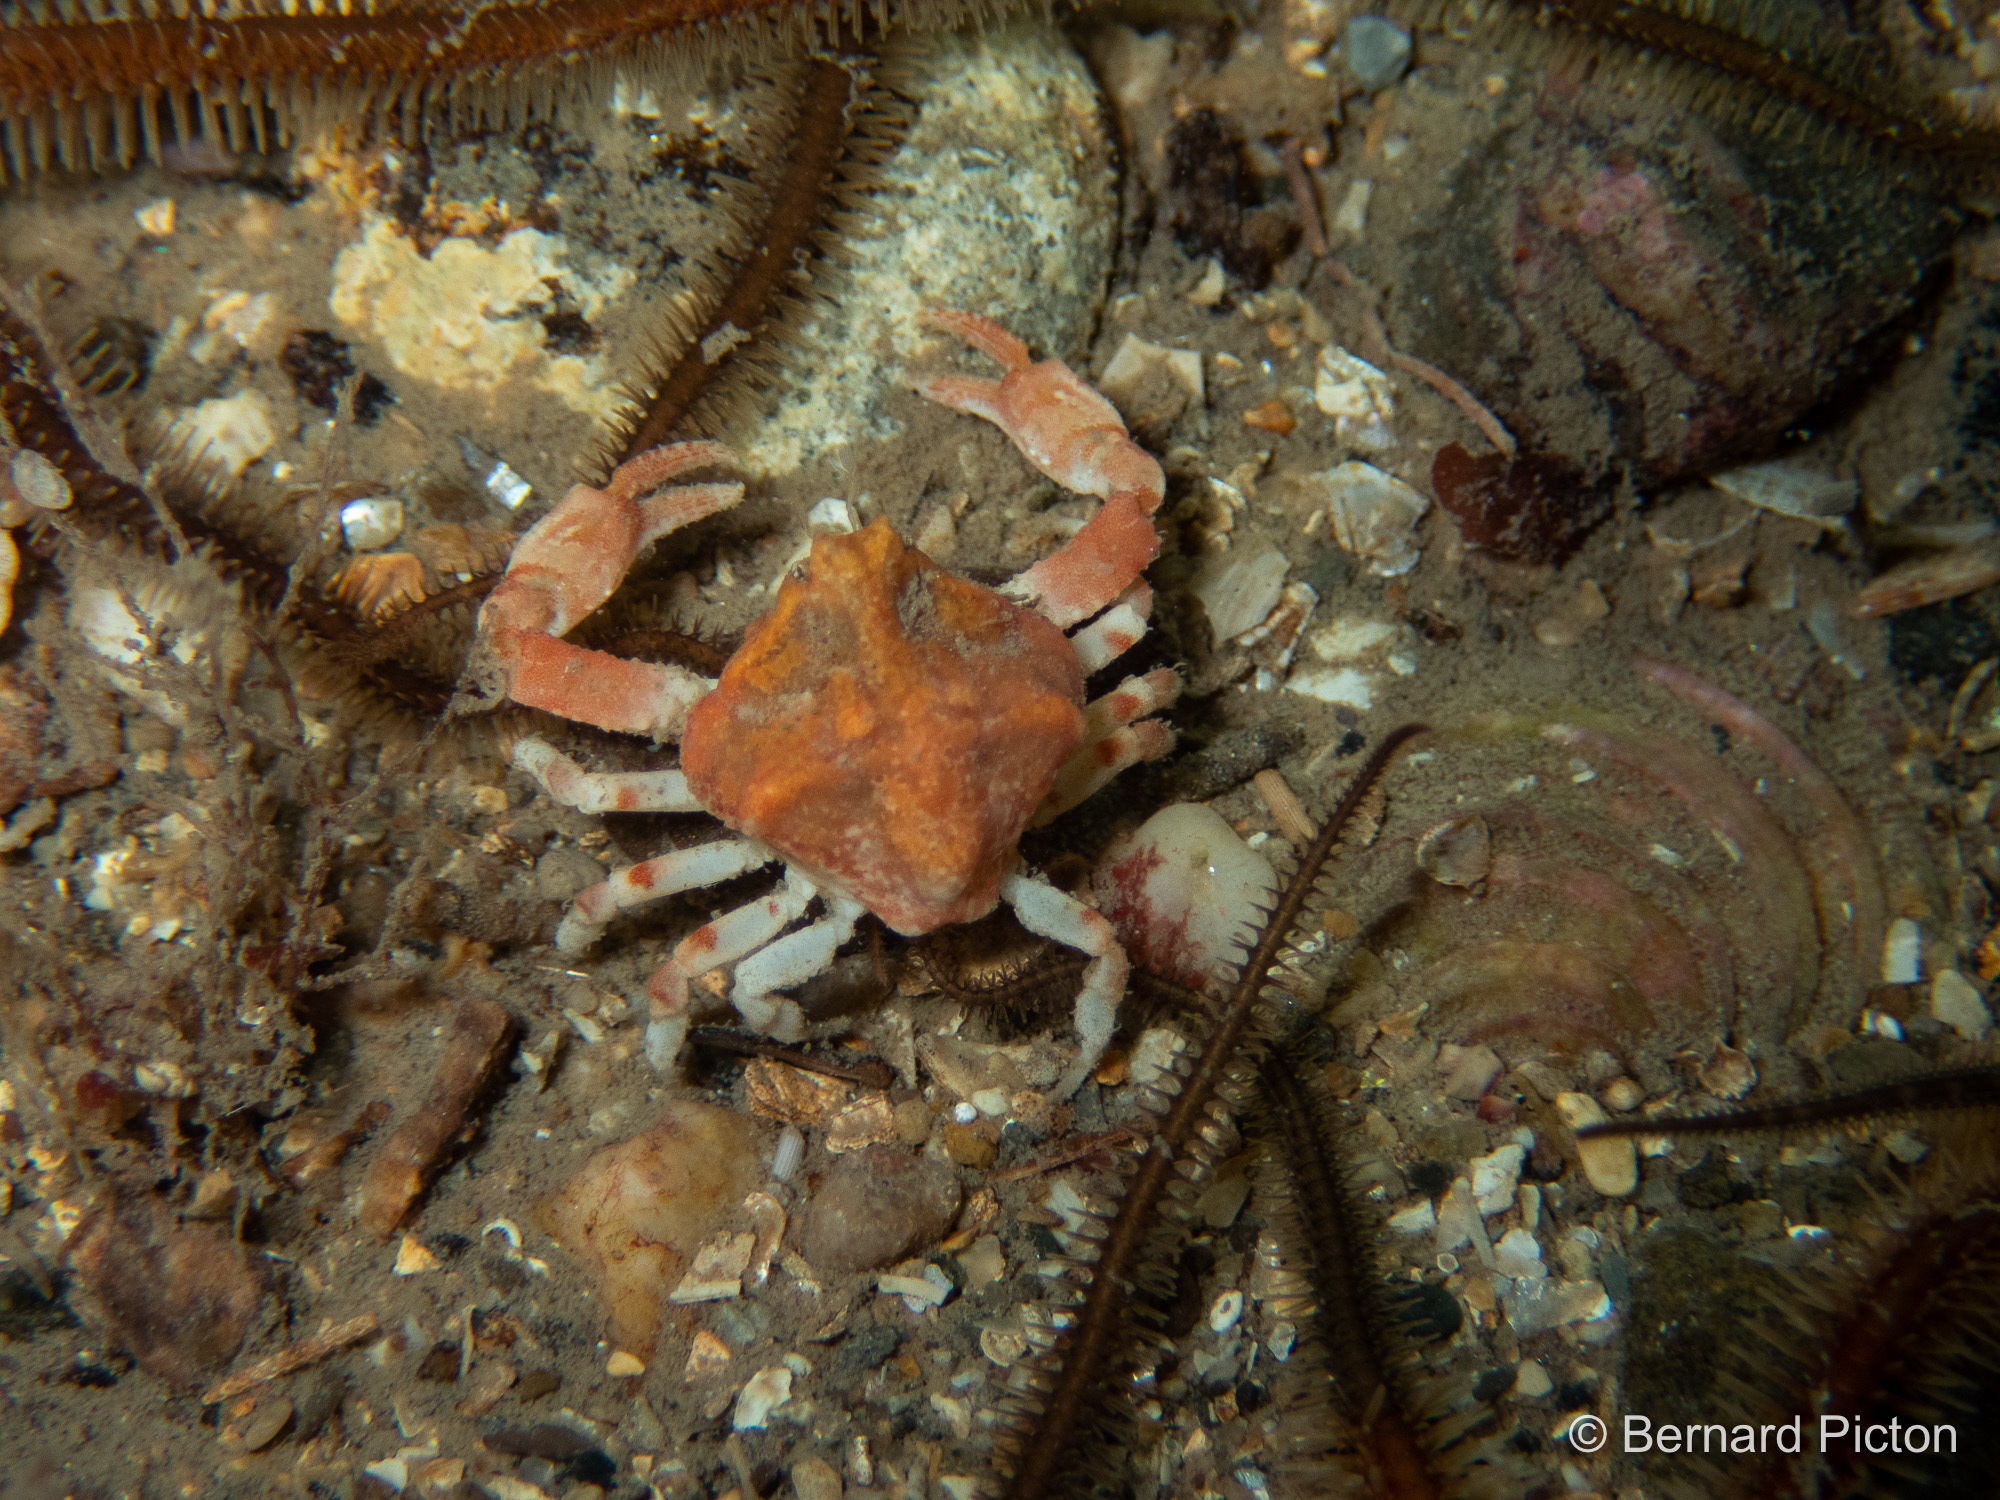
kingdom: Animalia
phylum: Arthropoda
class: Malacostraca
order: Decapoda
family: Leucosiidae
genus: Ebalia
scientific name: Ebalia tuberosa
